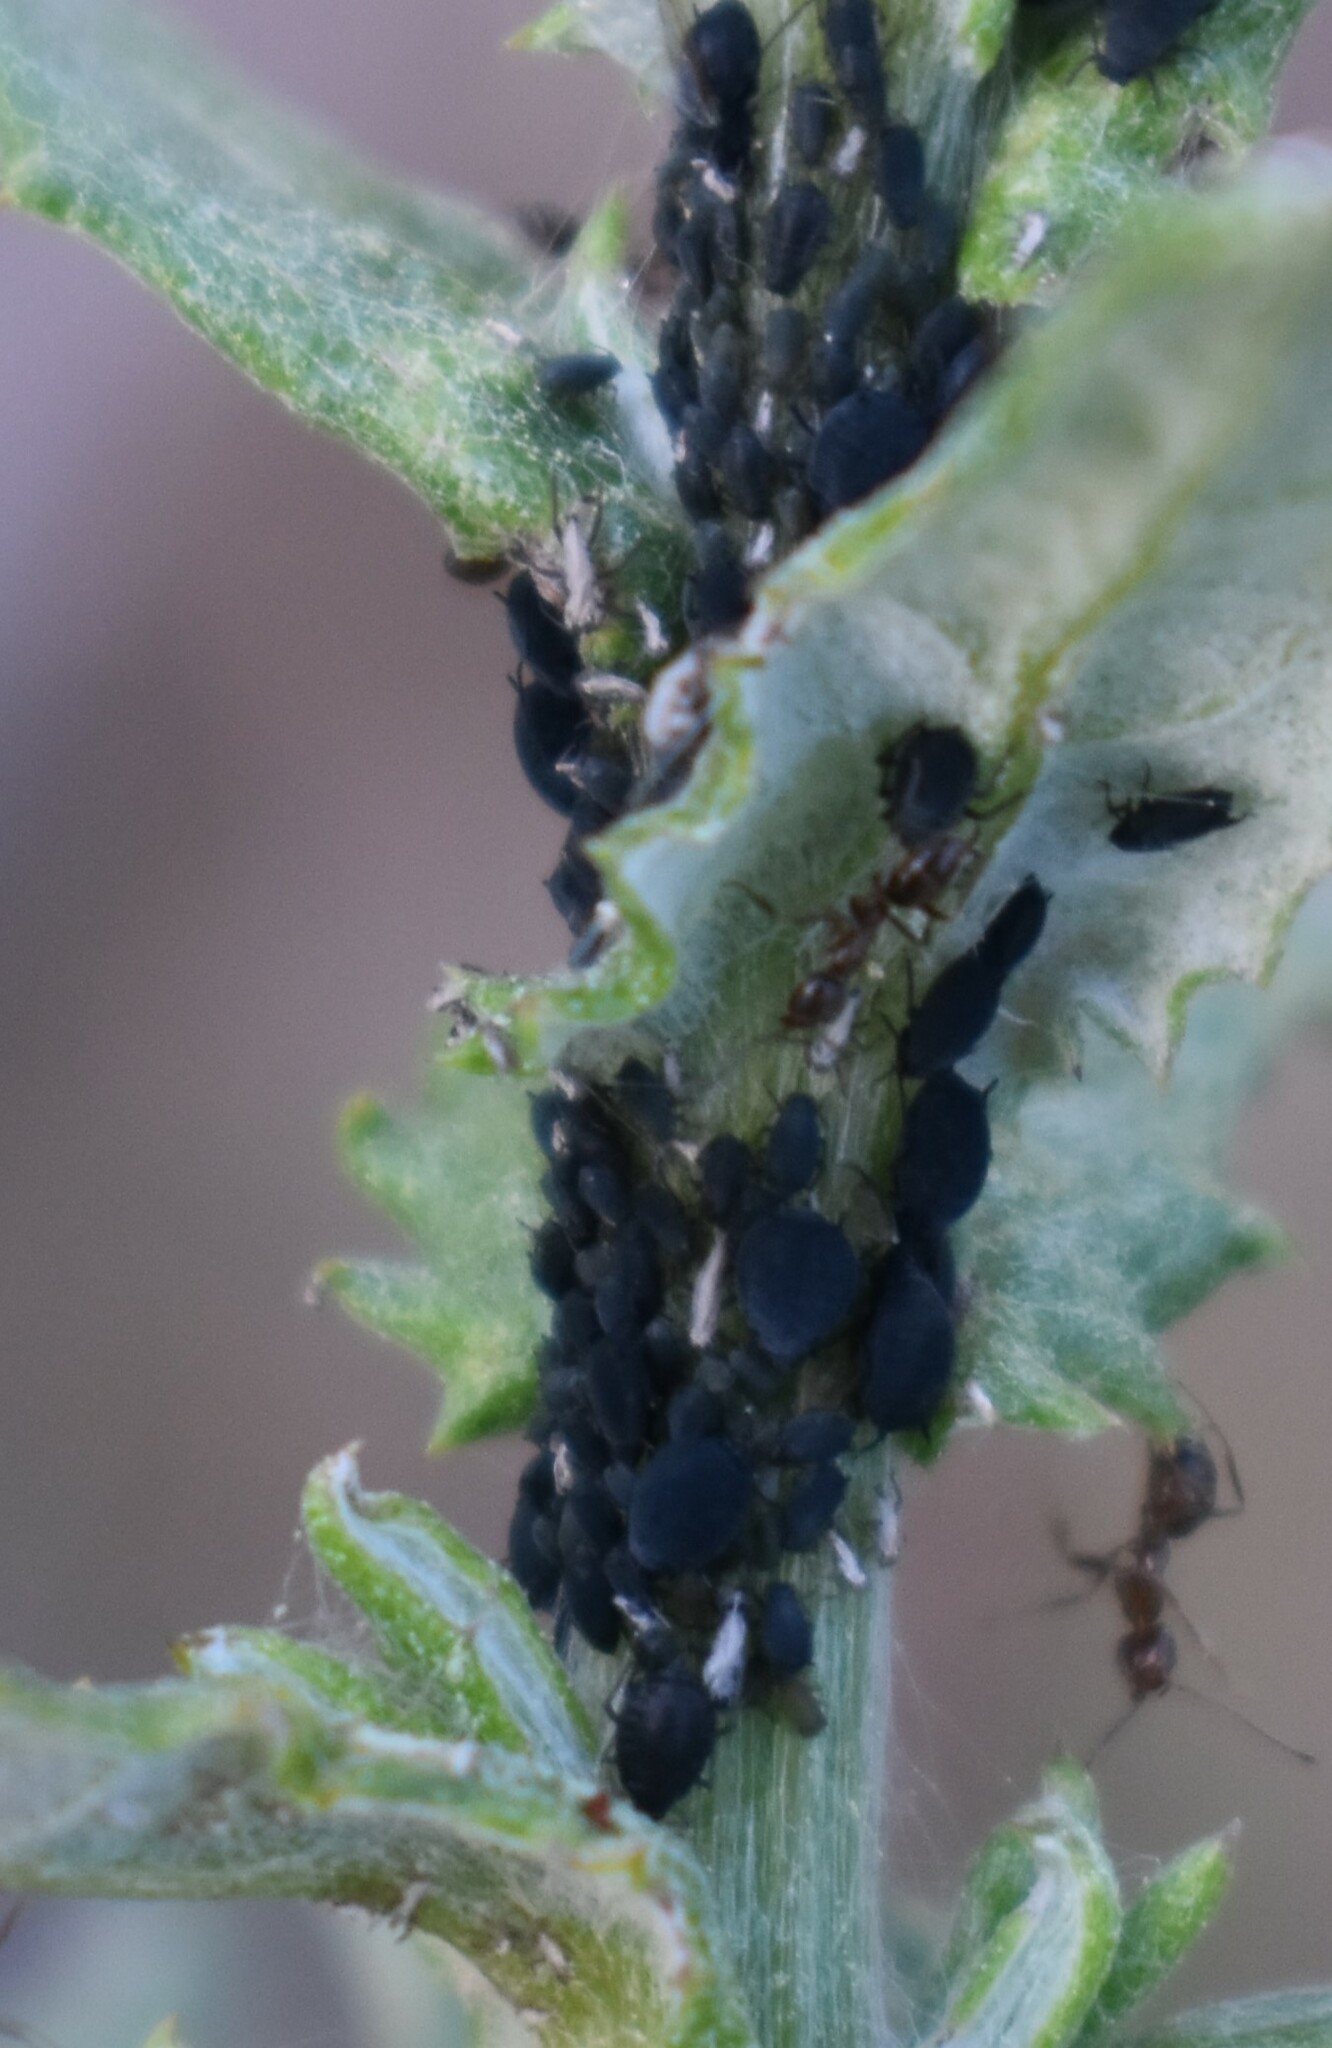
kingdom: Animalia
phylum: Arthropoda
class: Insecta
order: Hemiptera
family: Aphididae
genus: Aphis
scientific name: Aphis fabae
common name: Bean aphid
